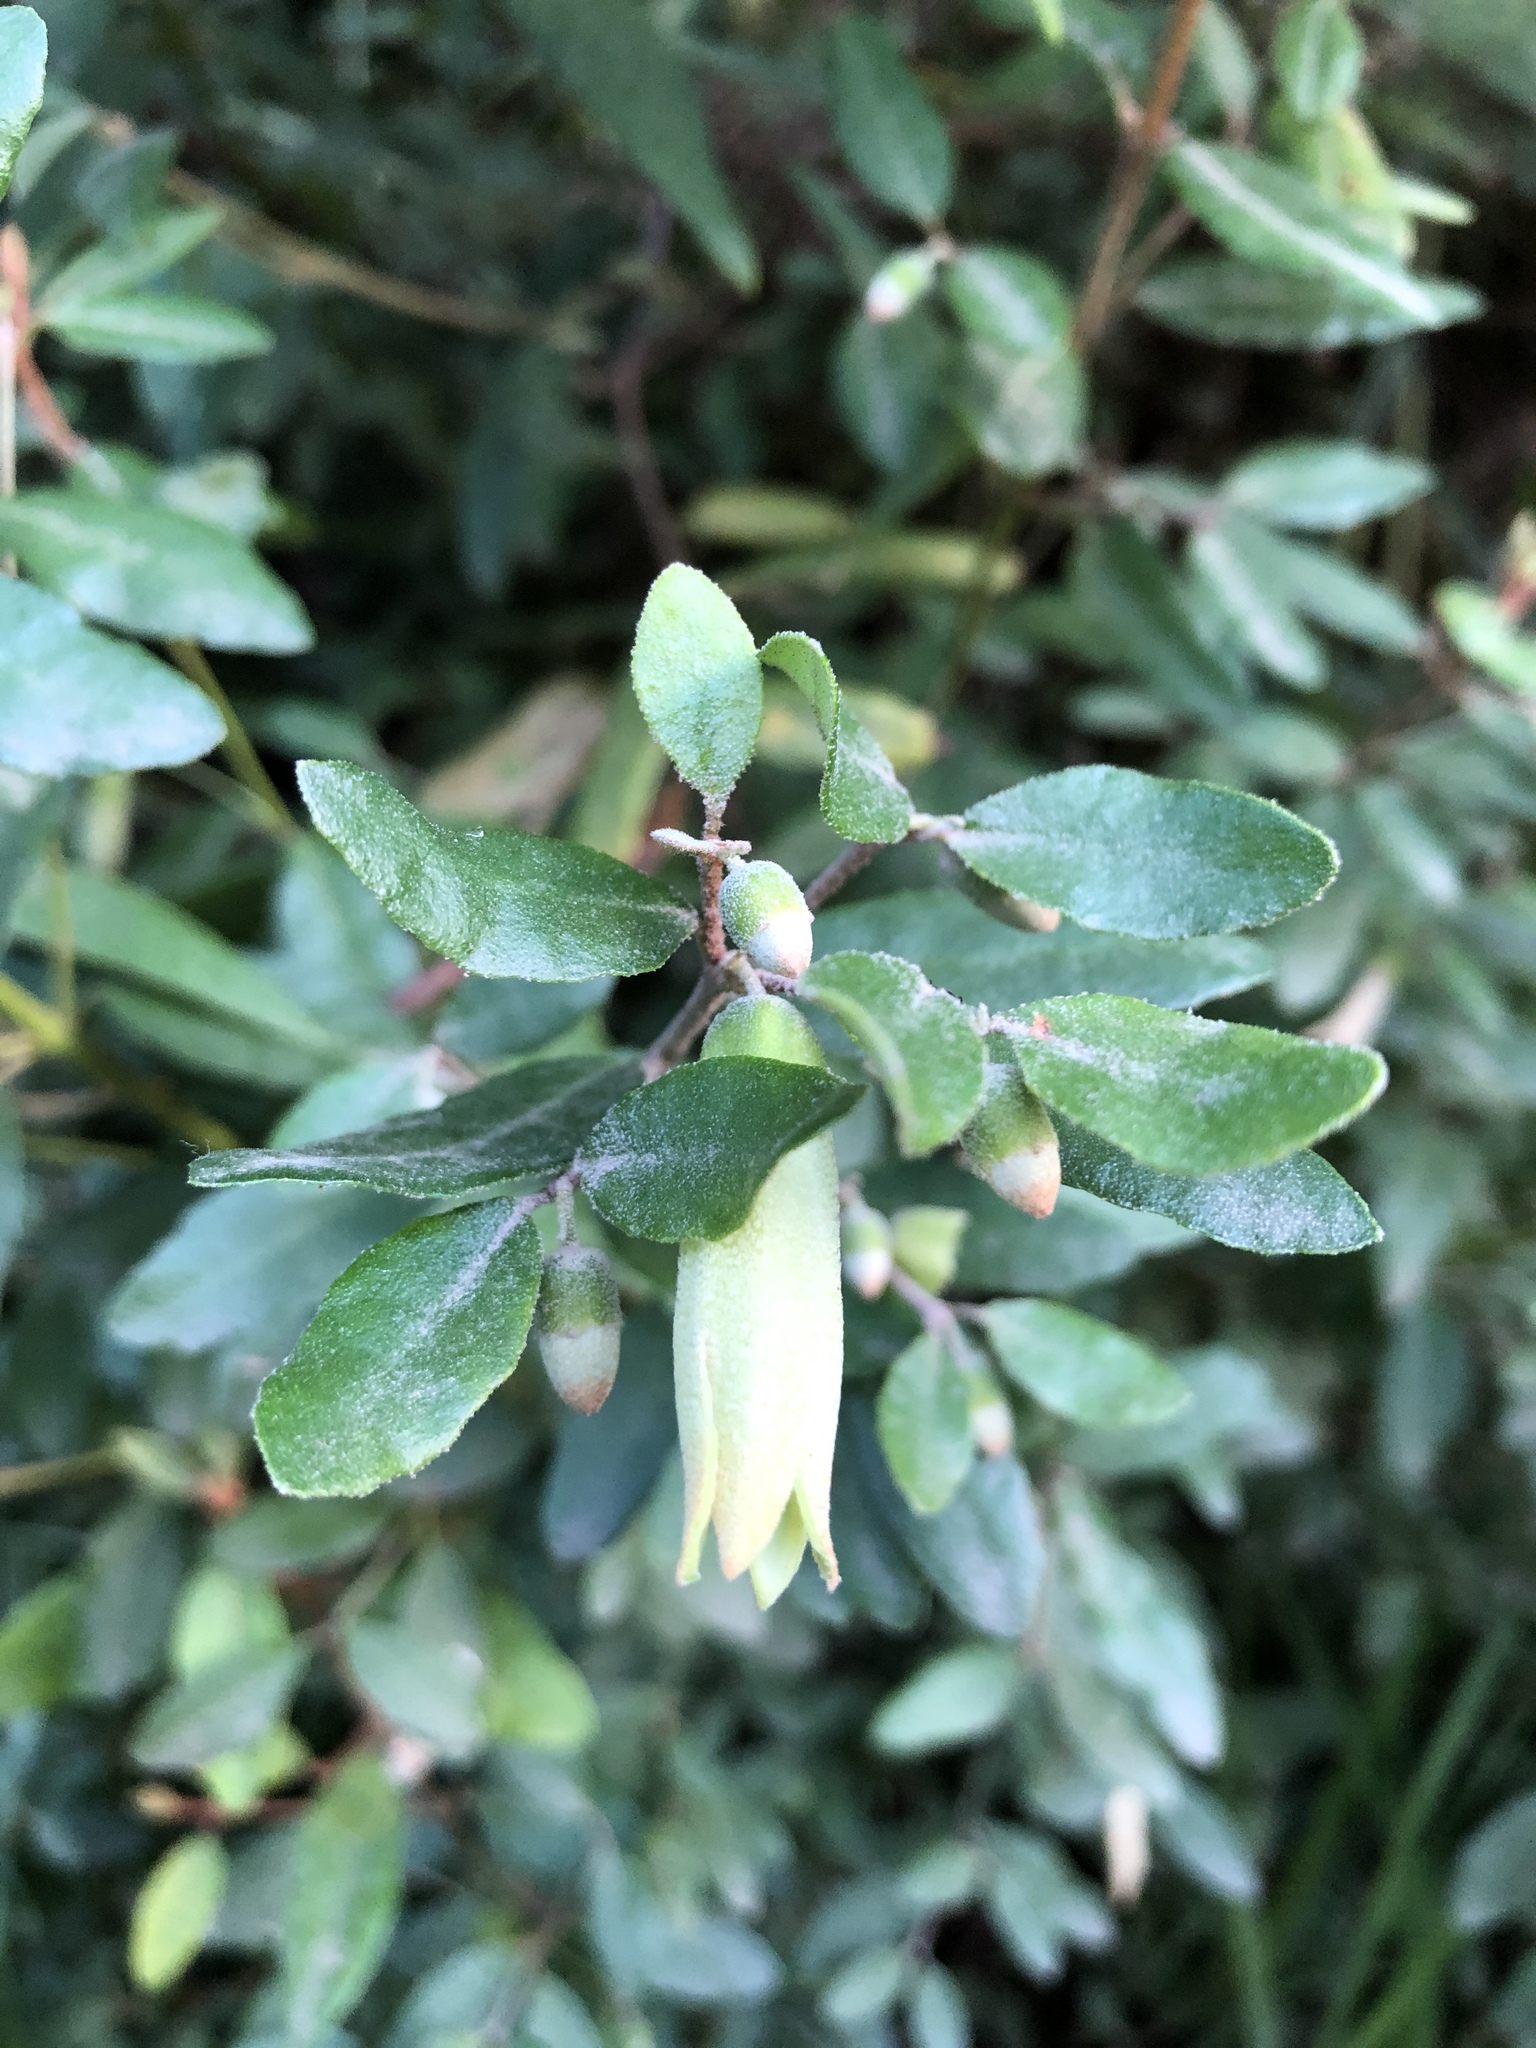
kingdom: Plantae
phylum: Tracheophyta
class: Magnoliopsida
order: Sapindales
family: Rutaceae
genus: Correa
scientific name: Correa glabra
